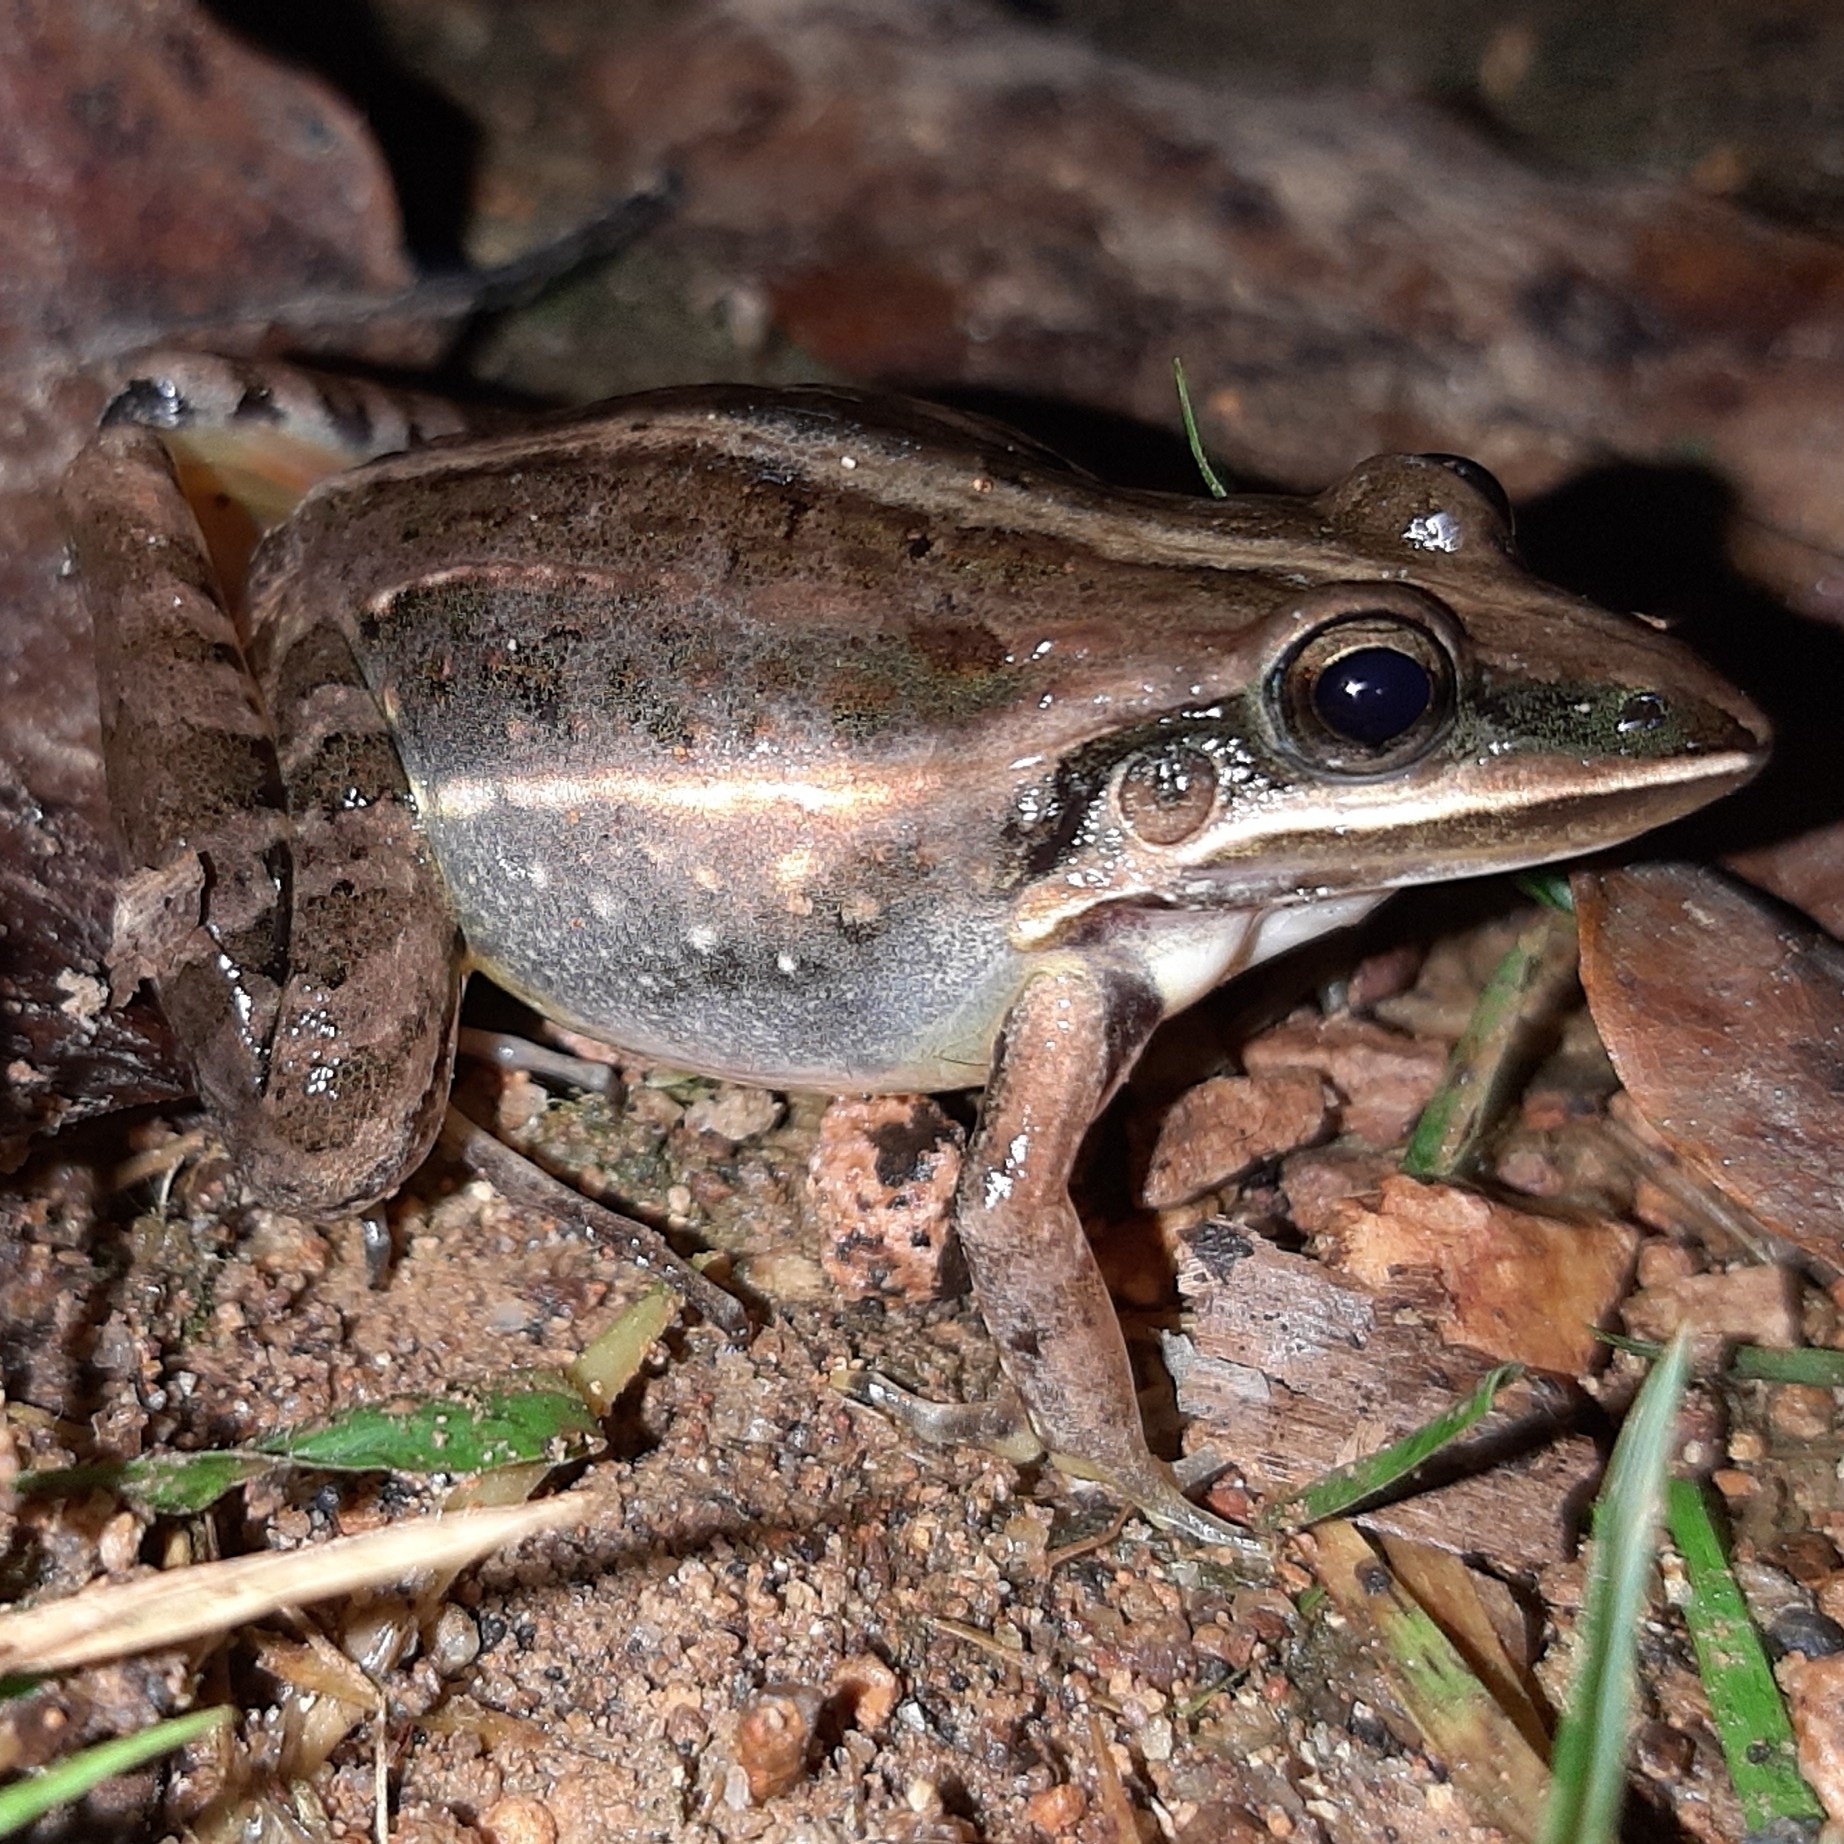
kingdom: Animalia
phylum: Chordata
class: Amphibia
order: Anura
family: Leptodactylidae
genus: Leptodactylus
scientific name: Leptodactylus fuscus
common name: Rufous frog
